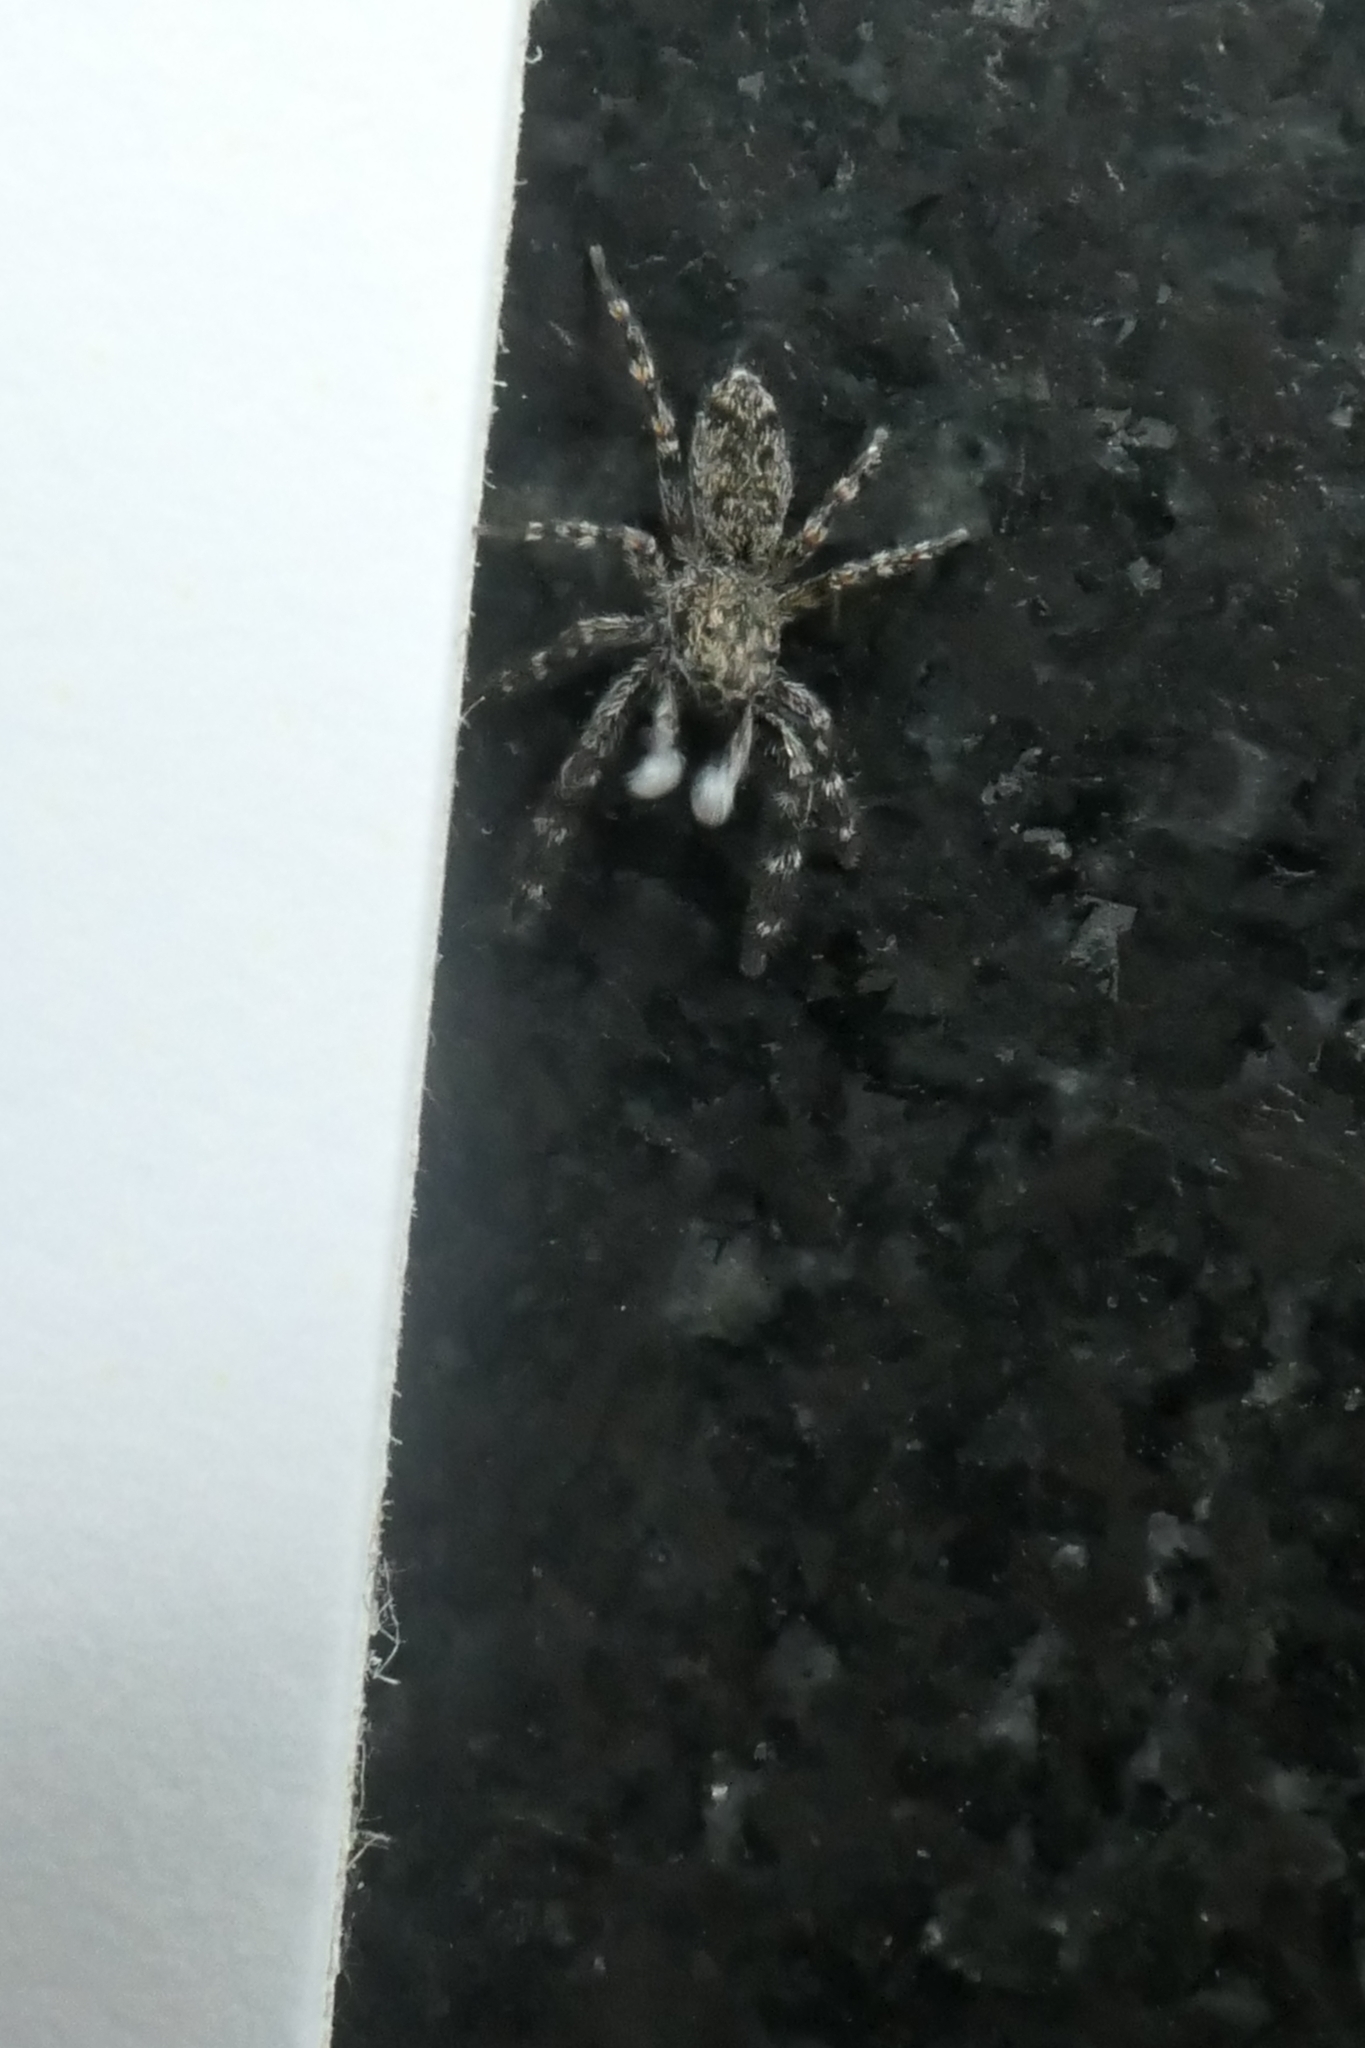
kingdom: Animalia
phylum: Arthropoda
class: Arachnida
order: Araneae
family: Salticidae
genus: Adoxotoma
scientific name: Adoxotoma forsteri
